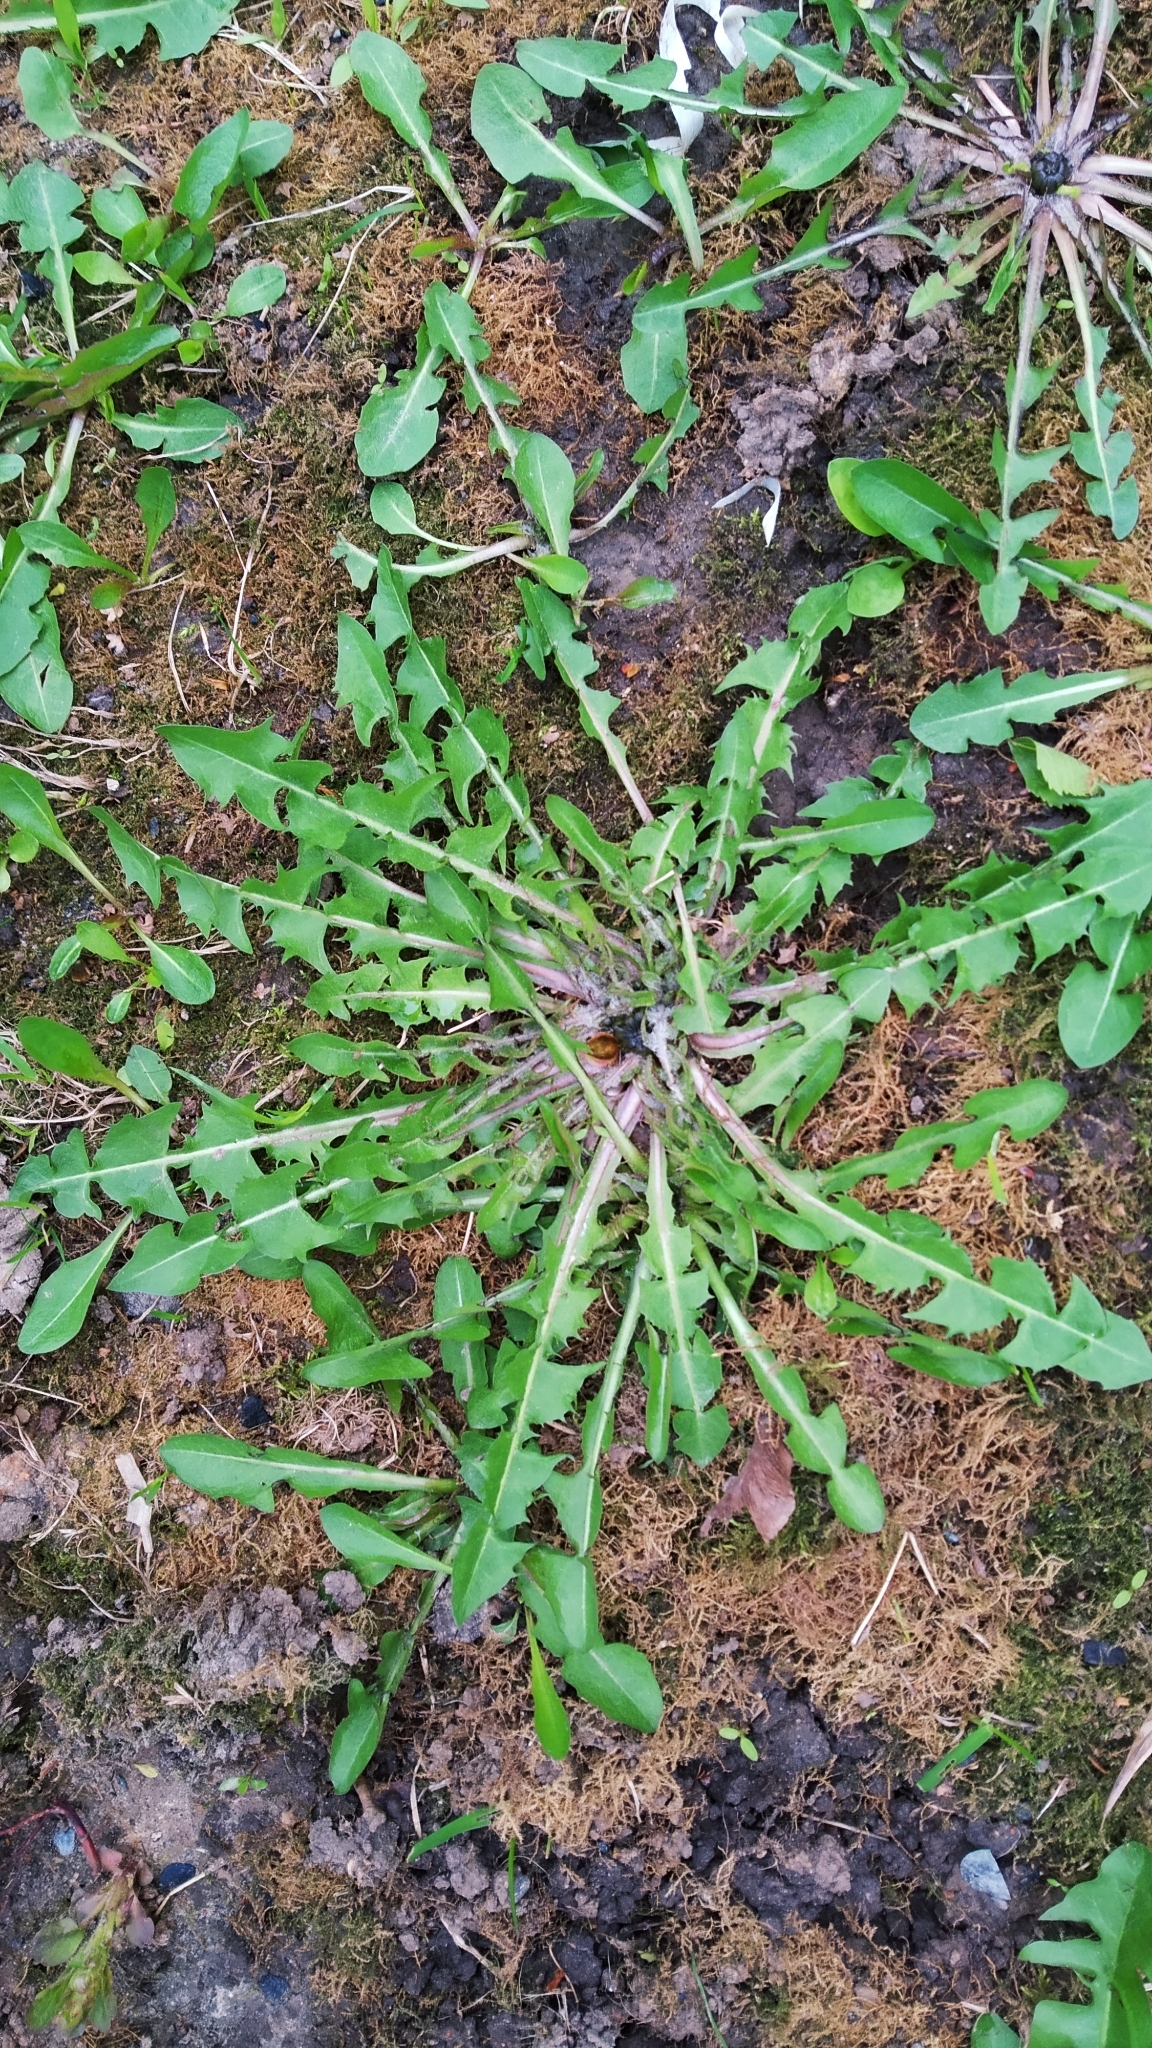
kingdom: Plantae
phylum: Tracheophyta
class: Magnoliopsida
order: Asterales
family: Asteraceae
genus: Taraxacum
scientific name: Taraxacum officinale
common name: Common dandelion
